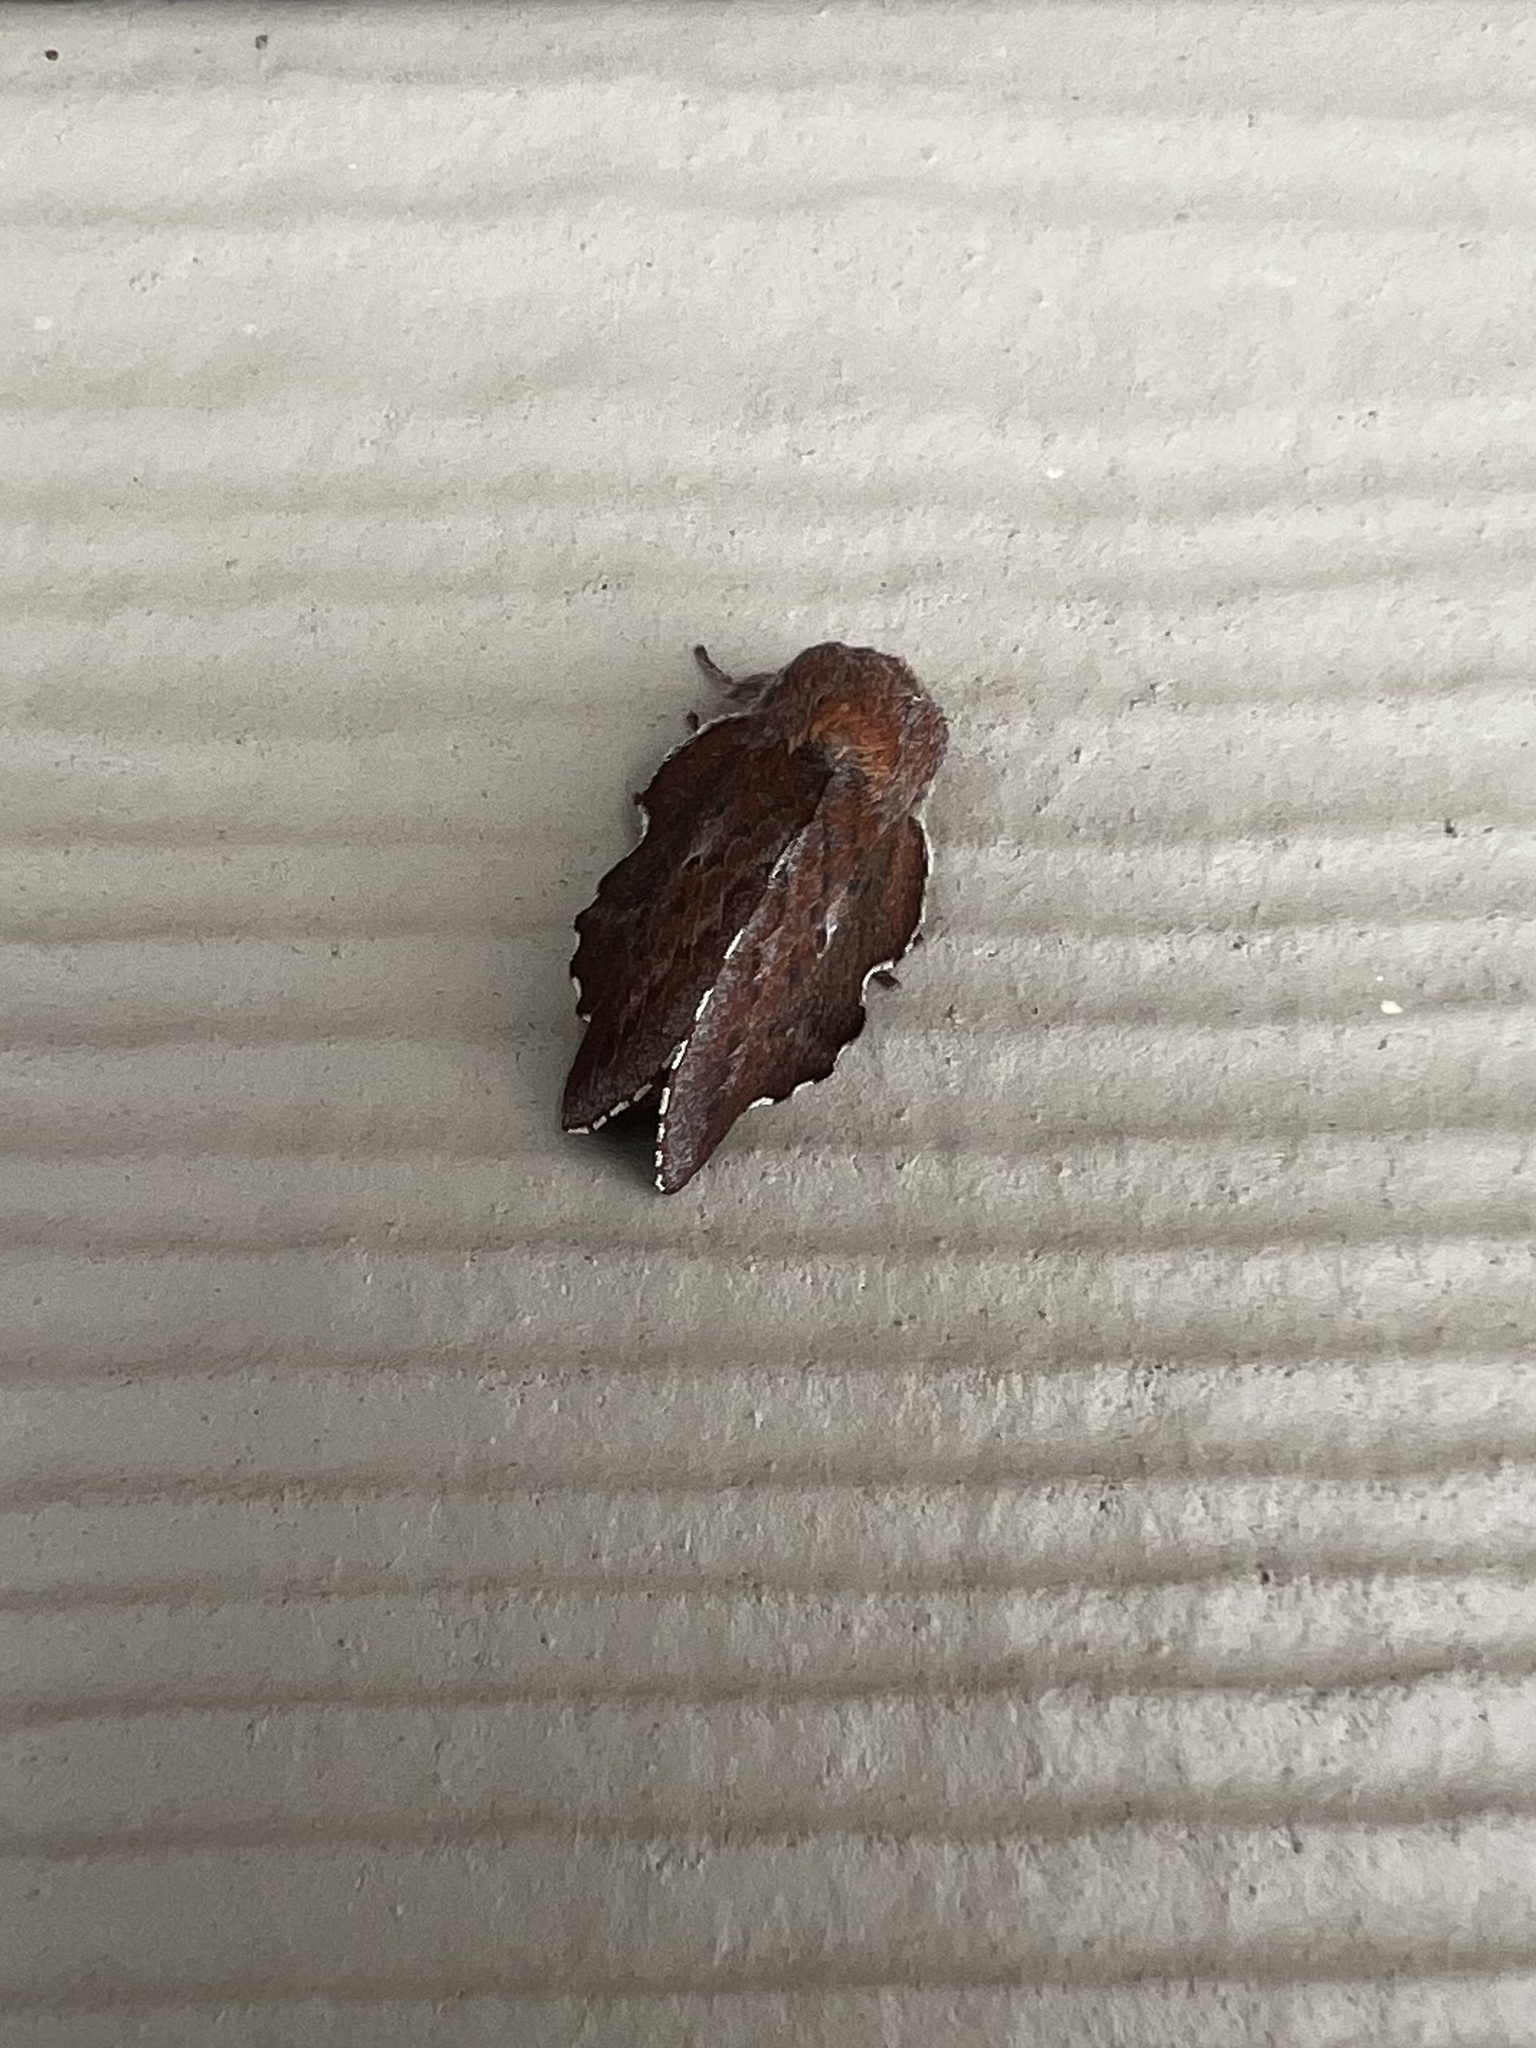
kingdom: Animalia
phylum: Arthropoda
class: Insecta
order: Lepidoptera
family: Lasiocampidae
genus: Phyllodesma
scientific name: Phyllodesma americana
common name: American lappet moth
